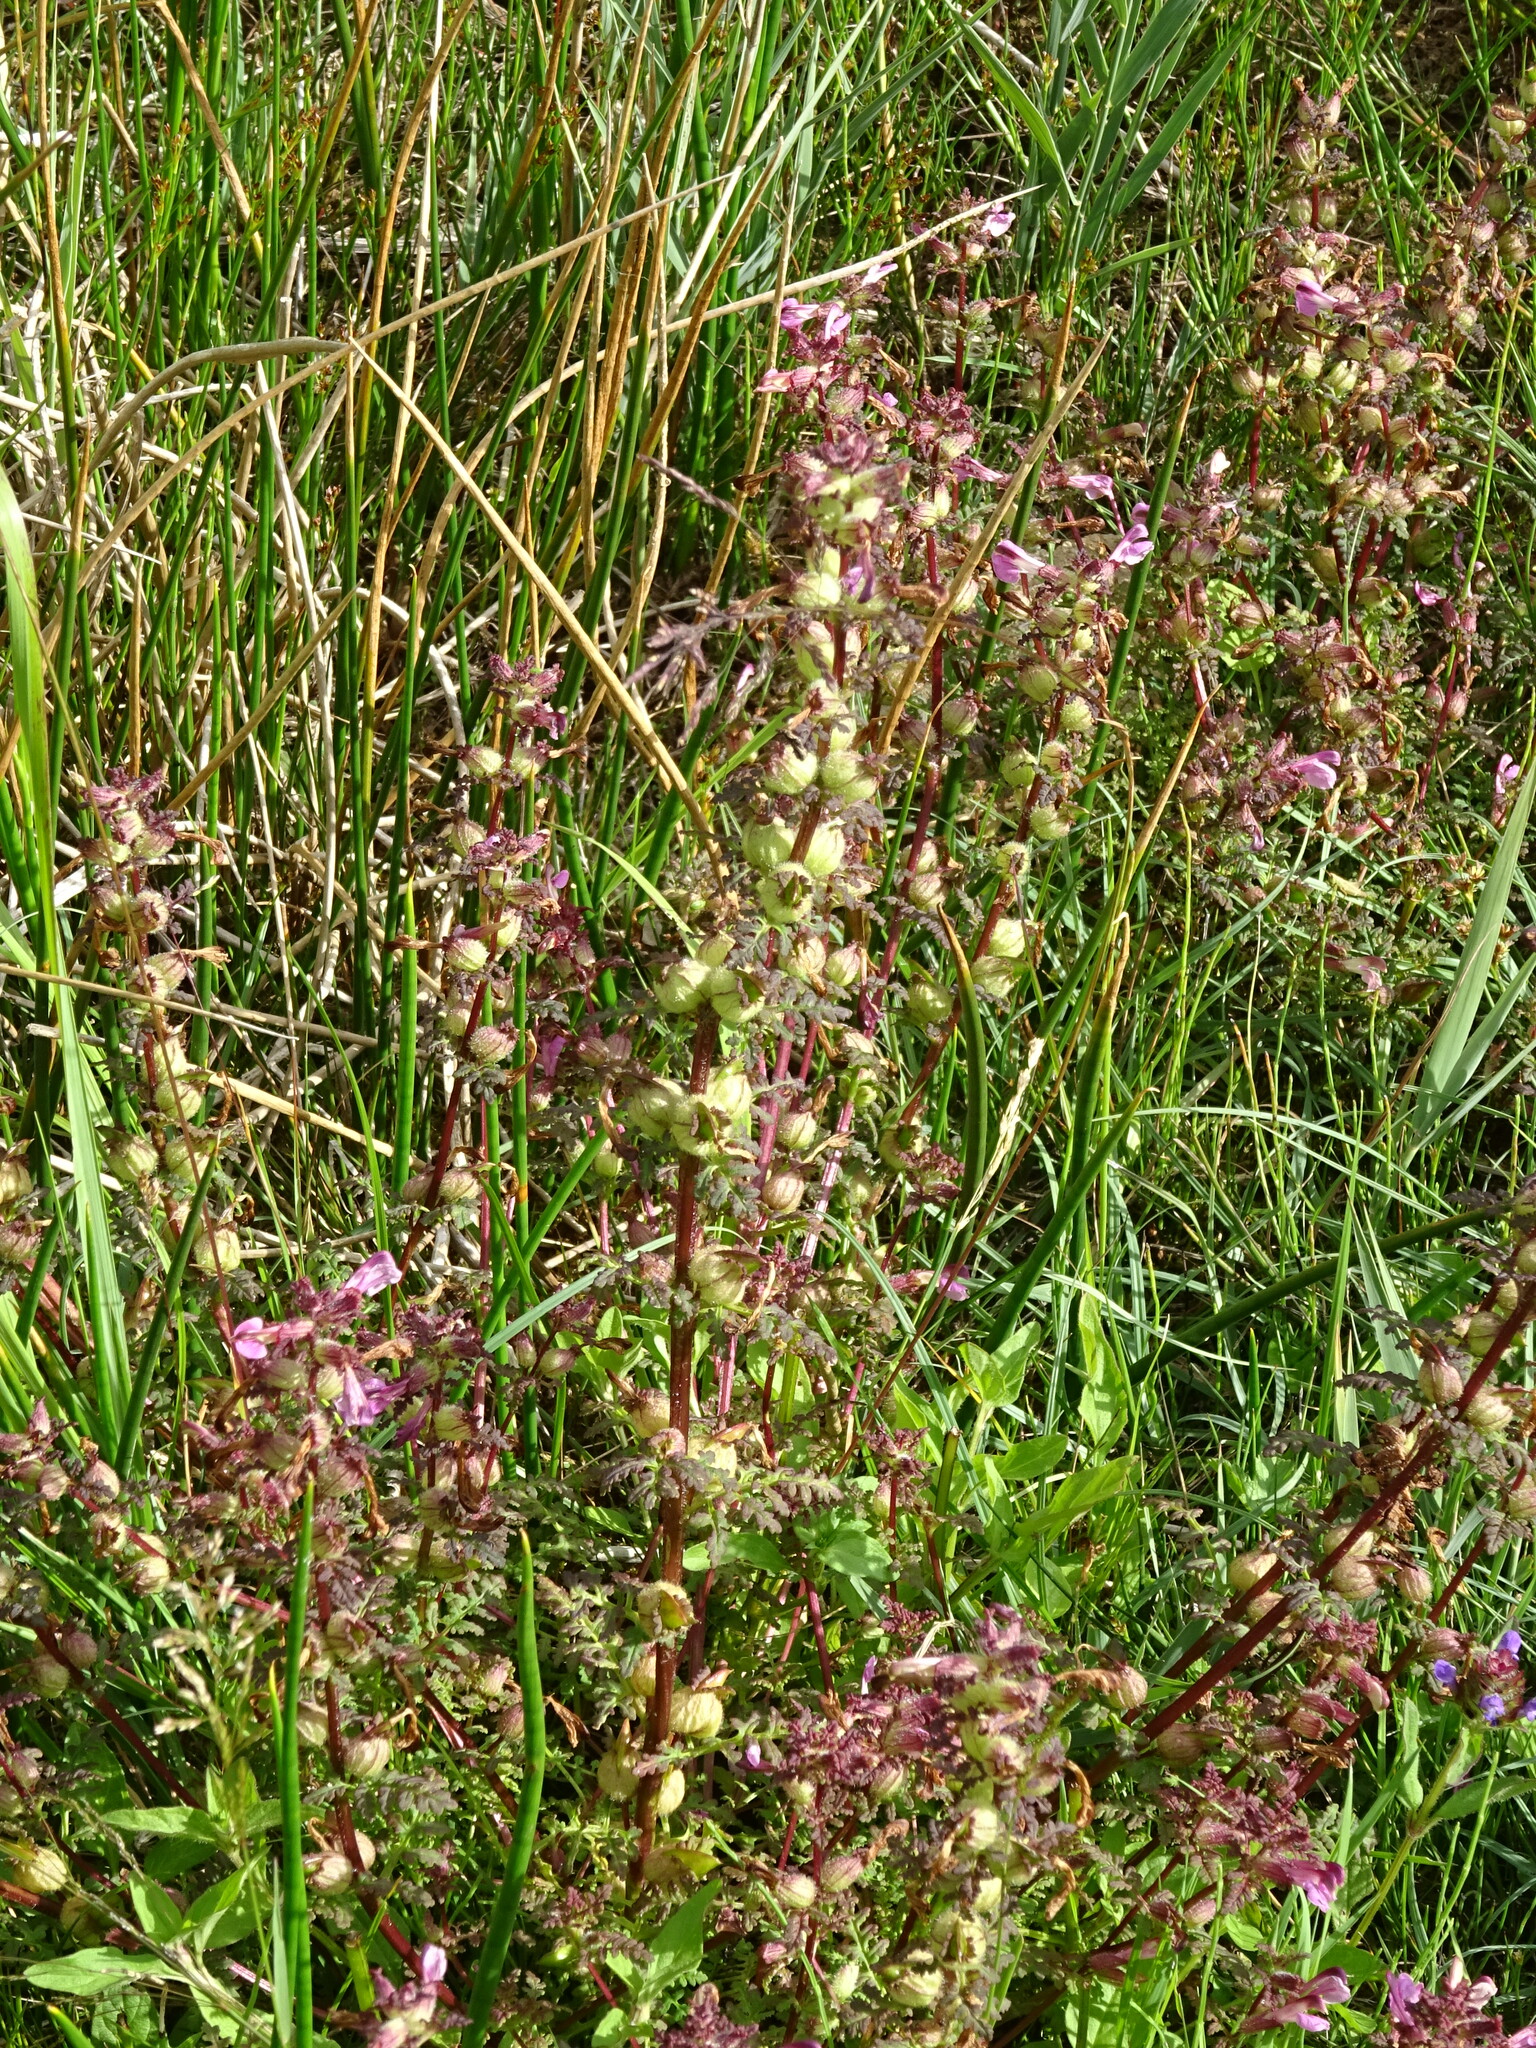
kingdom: Plantae
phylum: Tracheophyta
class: Magnoliopsida
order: Lamiales
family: Orobanchaceae
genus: Pedicularis
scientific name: Pedicularis palustris
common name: Marsh lousewort
